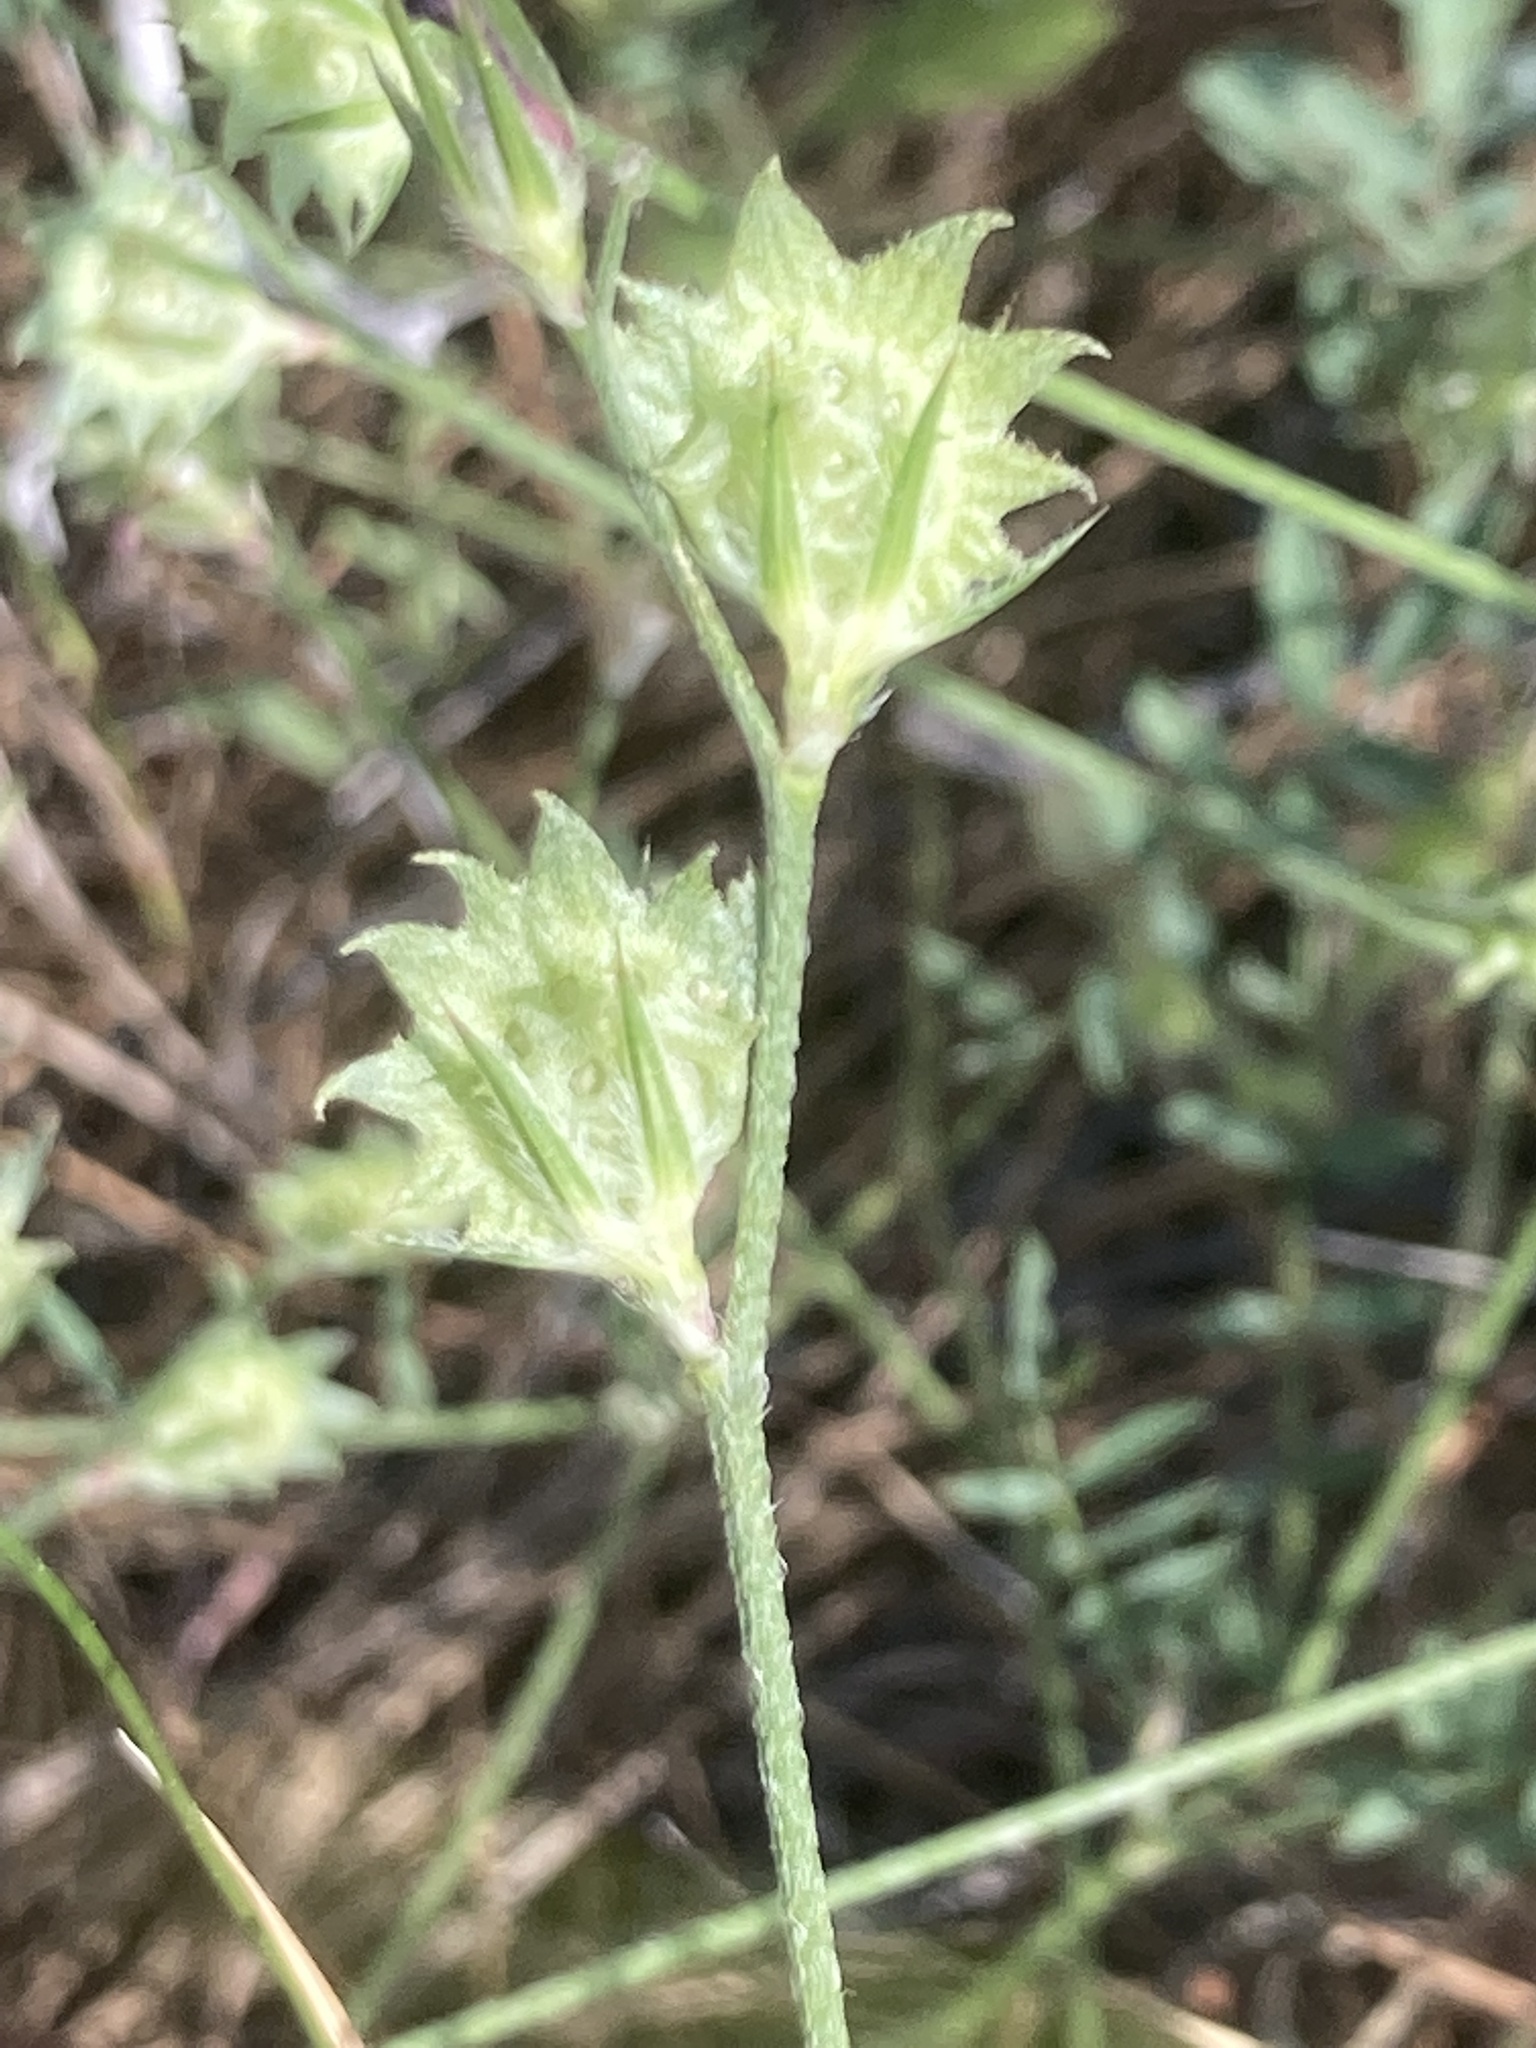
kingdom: Plantae
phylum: Tracheophyta
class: Magnoliopsida
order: Fabales
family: Fabaceae
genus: Onobrychis
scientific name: Onobrychis aequidentata
